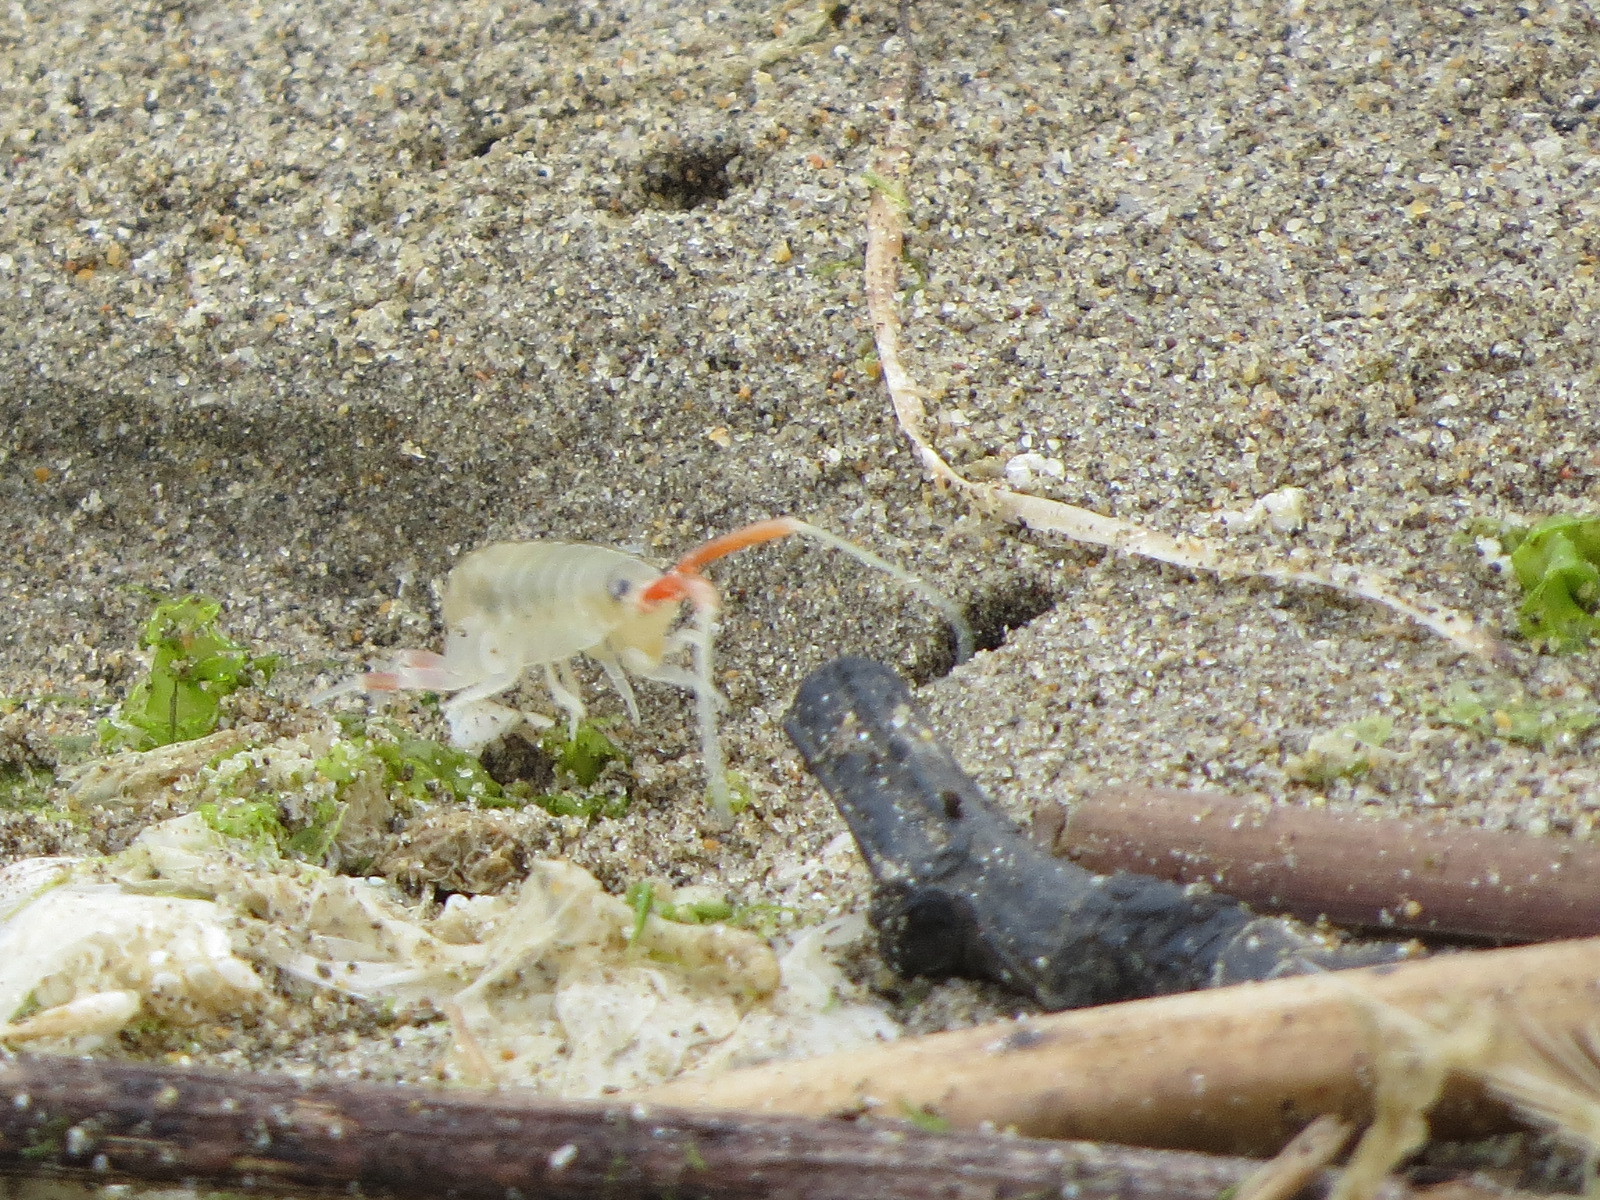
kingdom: Animalia
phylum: Arthropoda
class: Malacostraca
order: Amphipoda
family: Talitridae
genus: Megalorchestia
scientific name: Megalorchestia californiana
